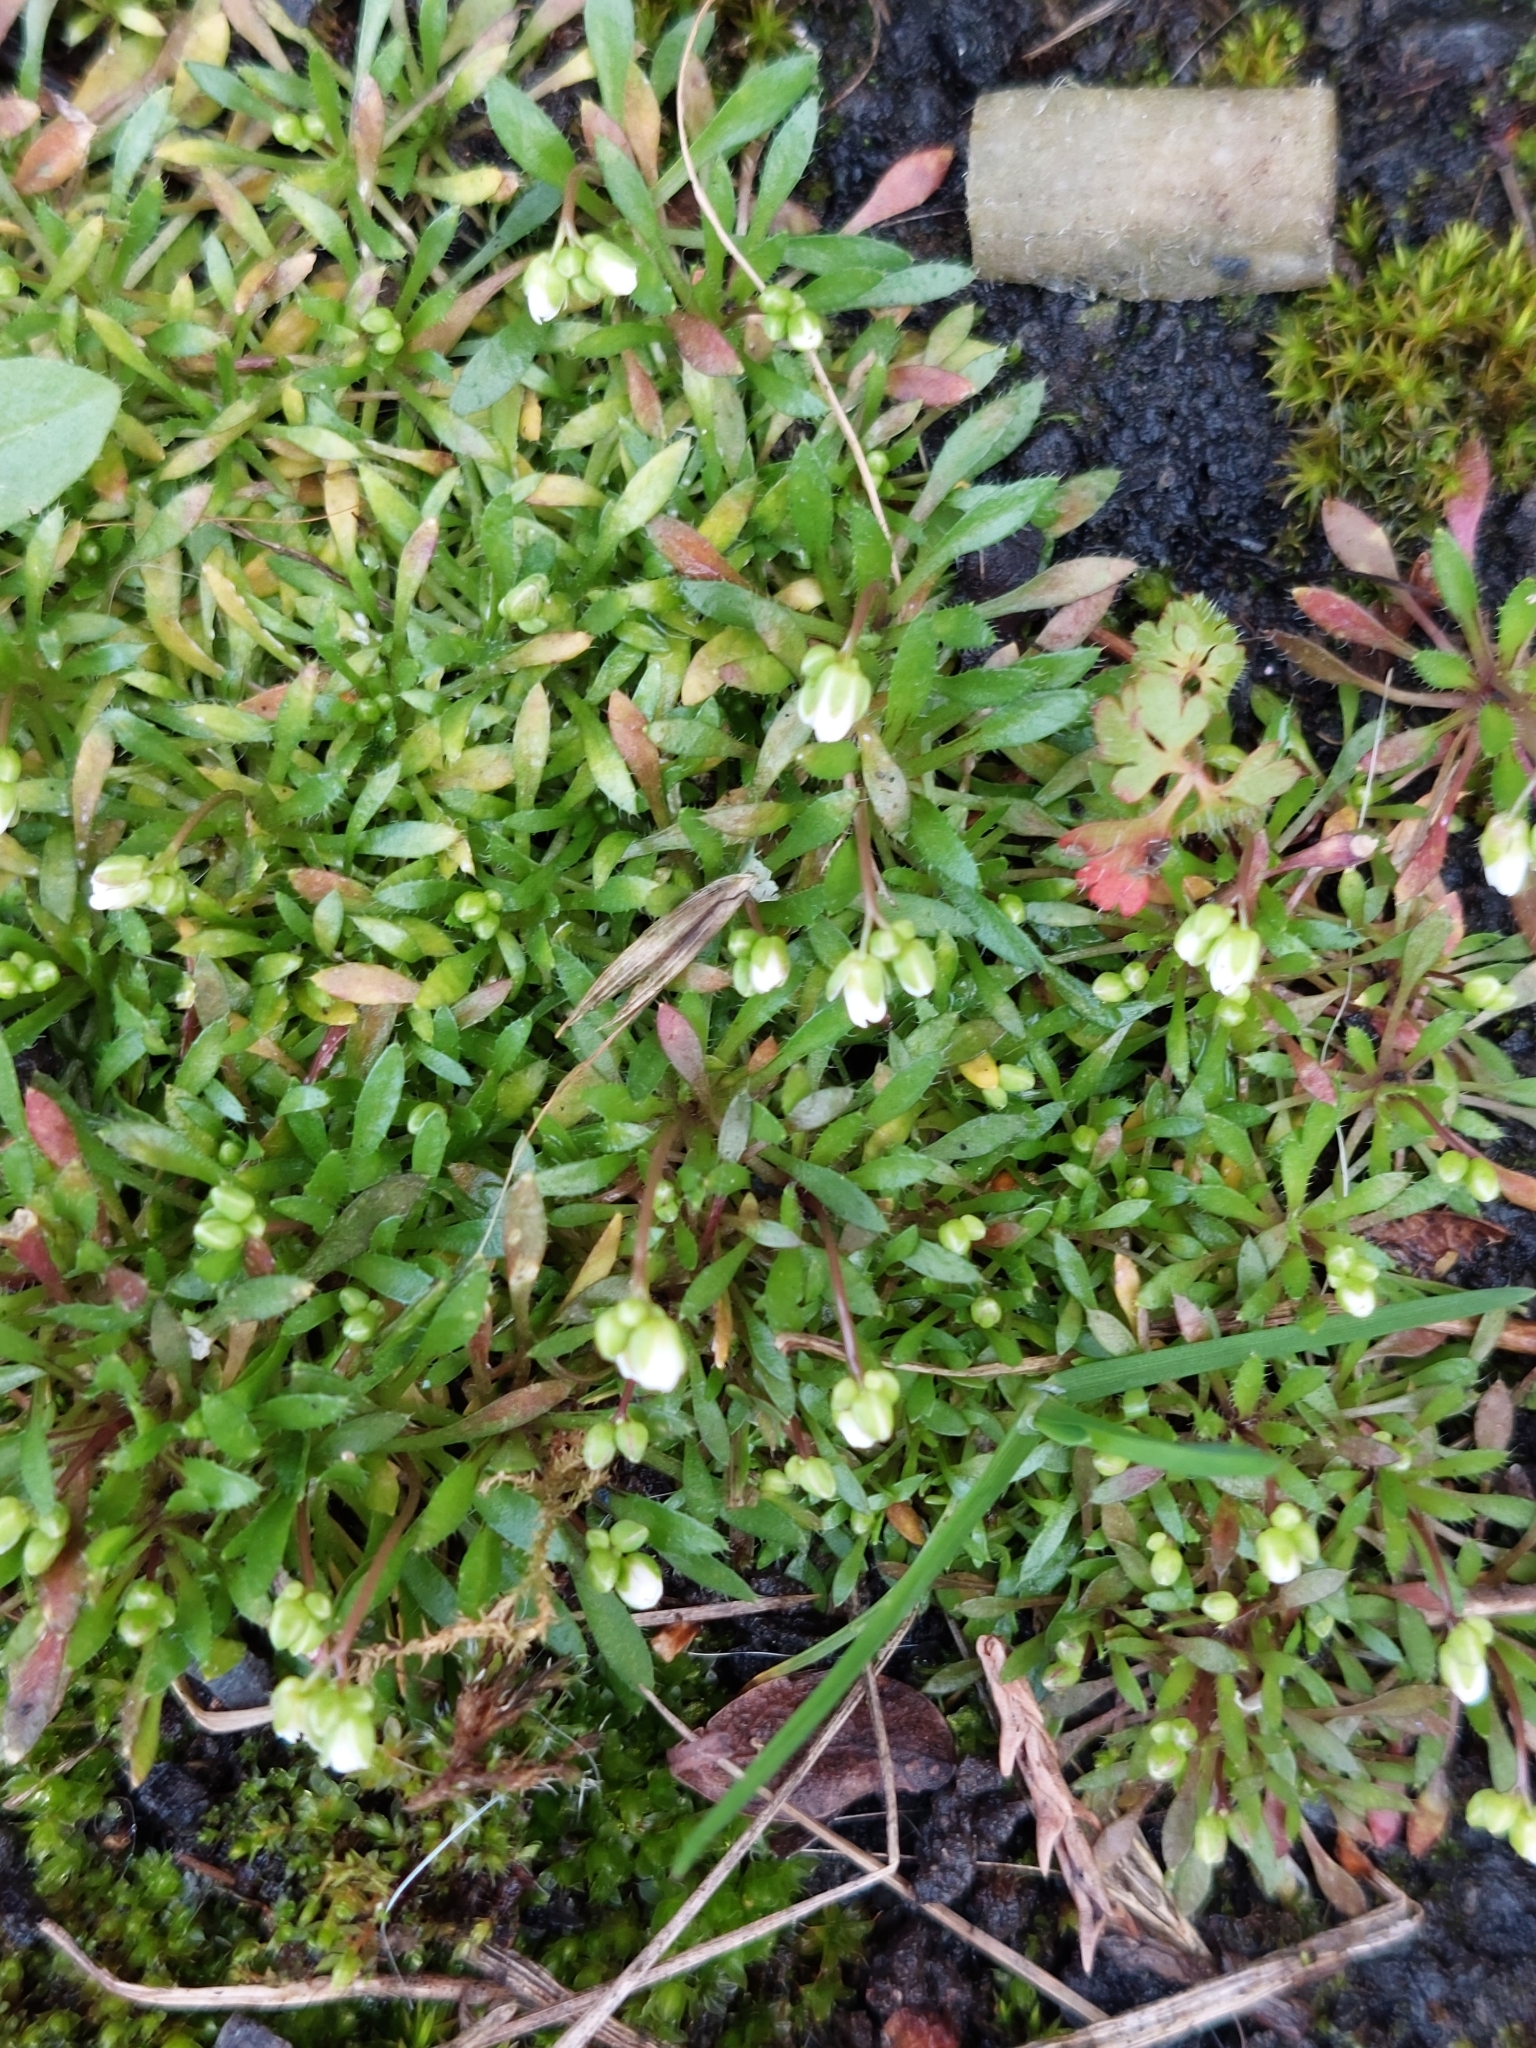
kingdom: Plantae
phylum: Tracheophyta
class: Magnoliopsida
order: Brassicales
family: Brassicaceae
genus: Draba
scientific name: Draba verna
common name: Spring draba
